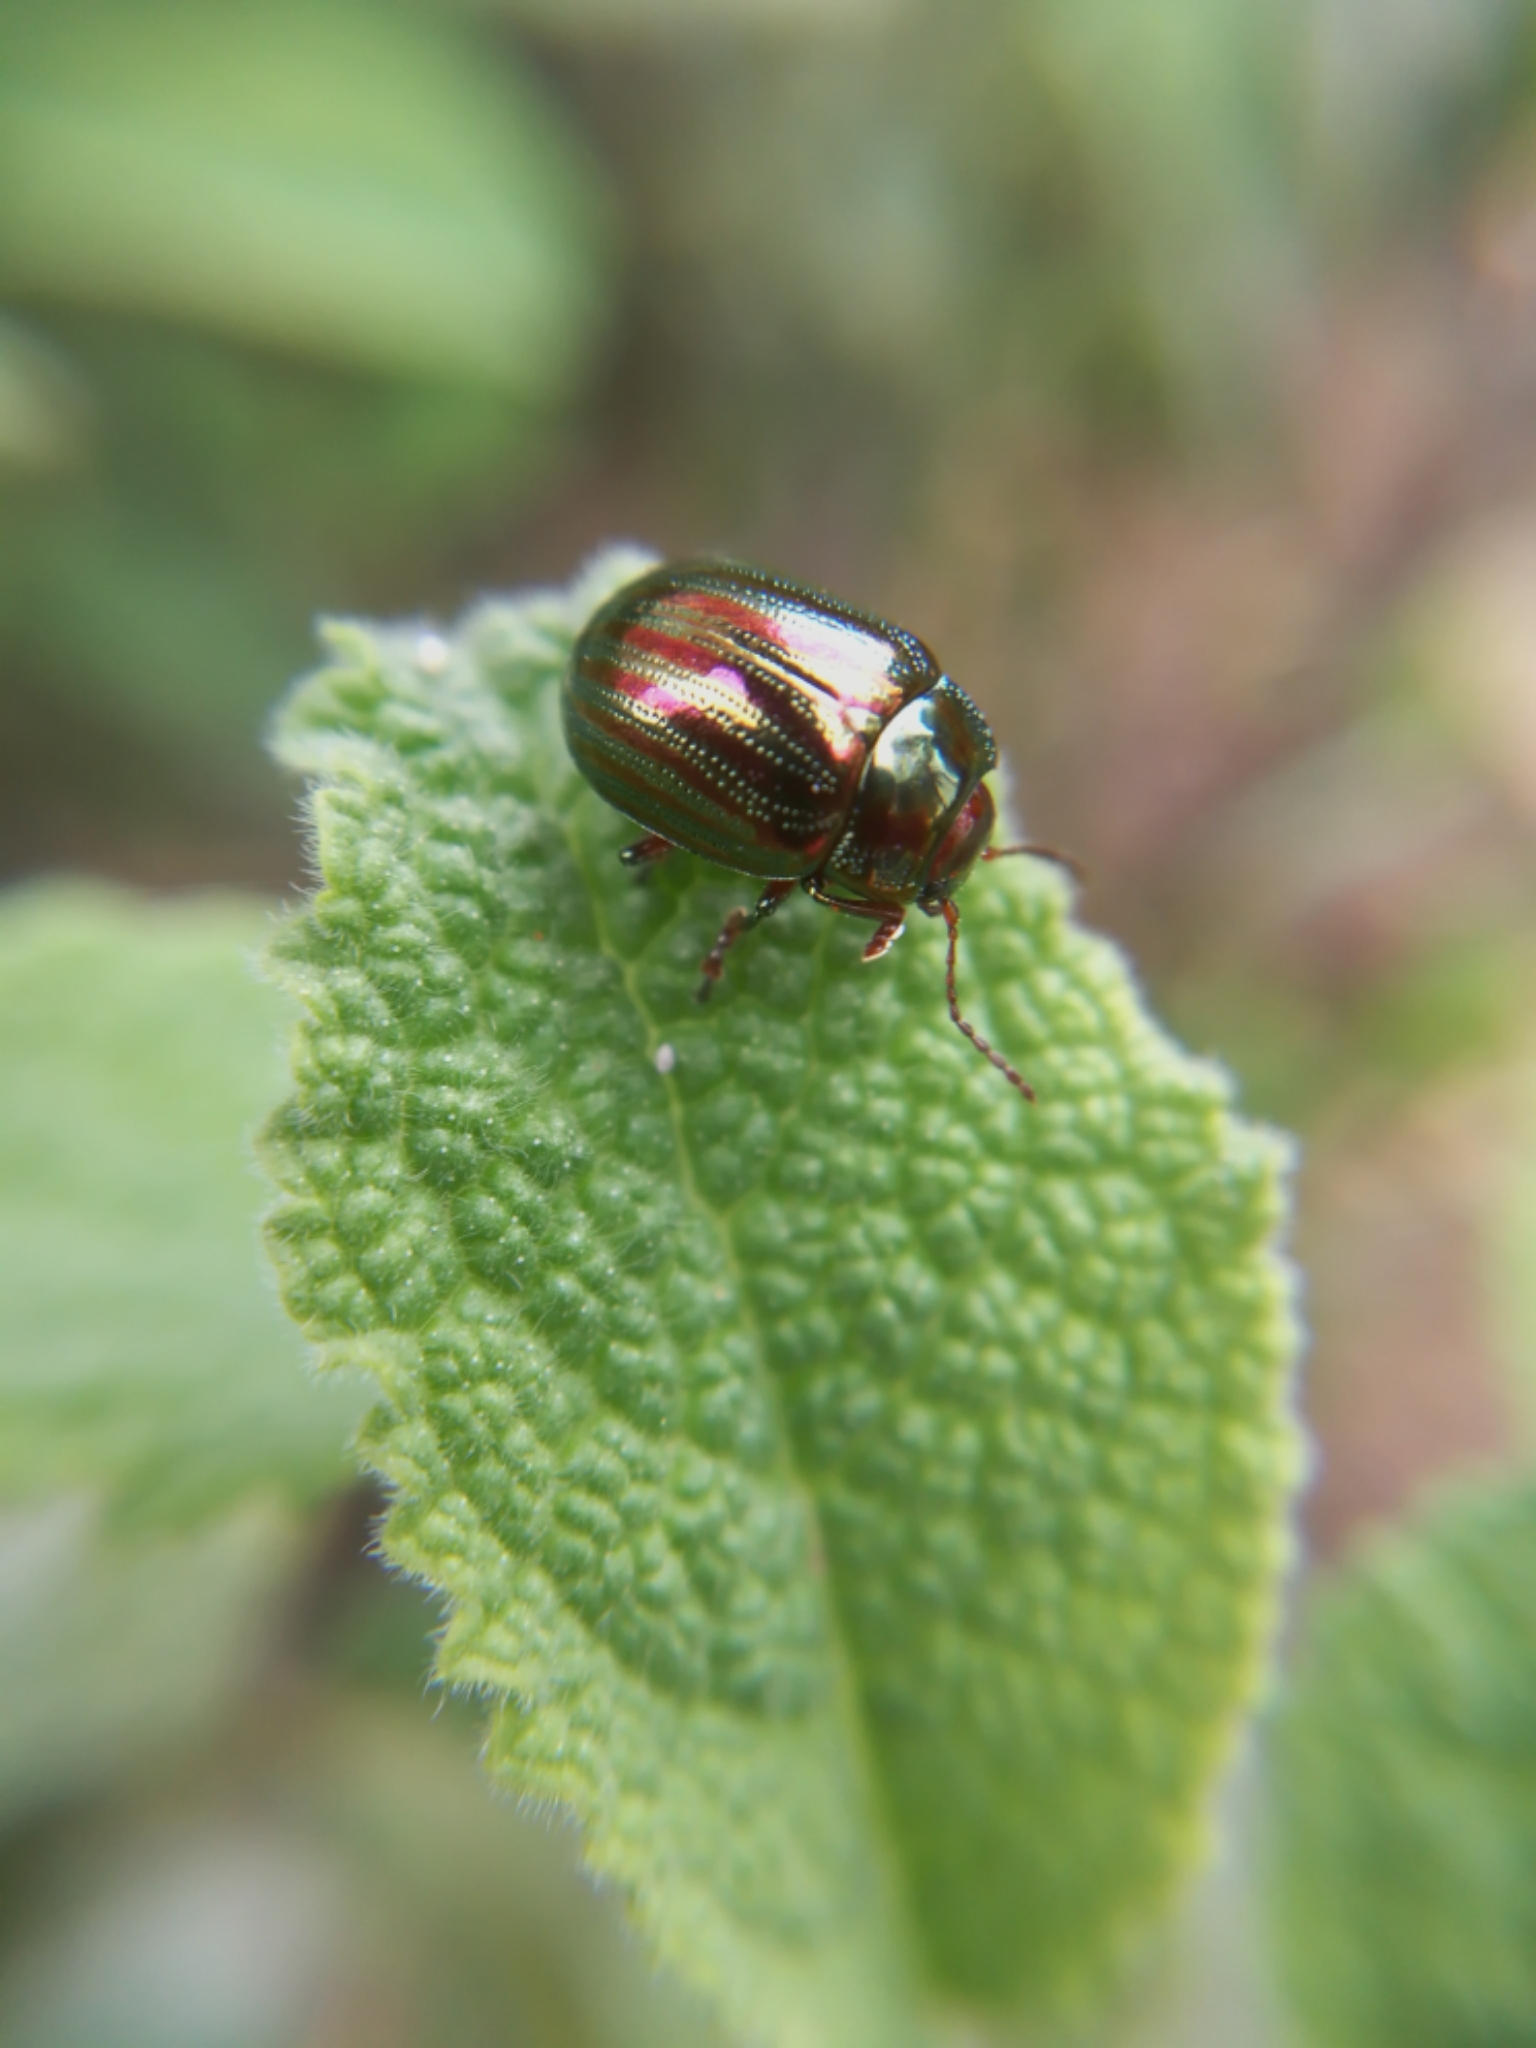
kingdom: Animalia
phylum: Arthropoda
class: Insecta
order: Coleoptera
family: Chrysomelidae
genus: Chrysolina
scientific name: Chrysolina americana
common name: Rosemary beetle
